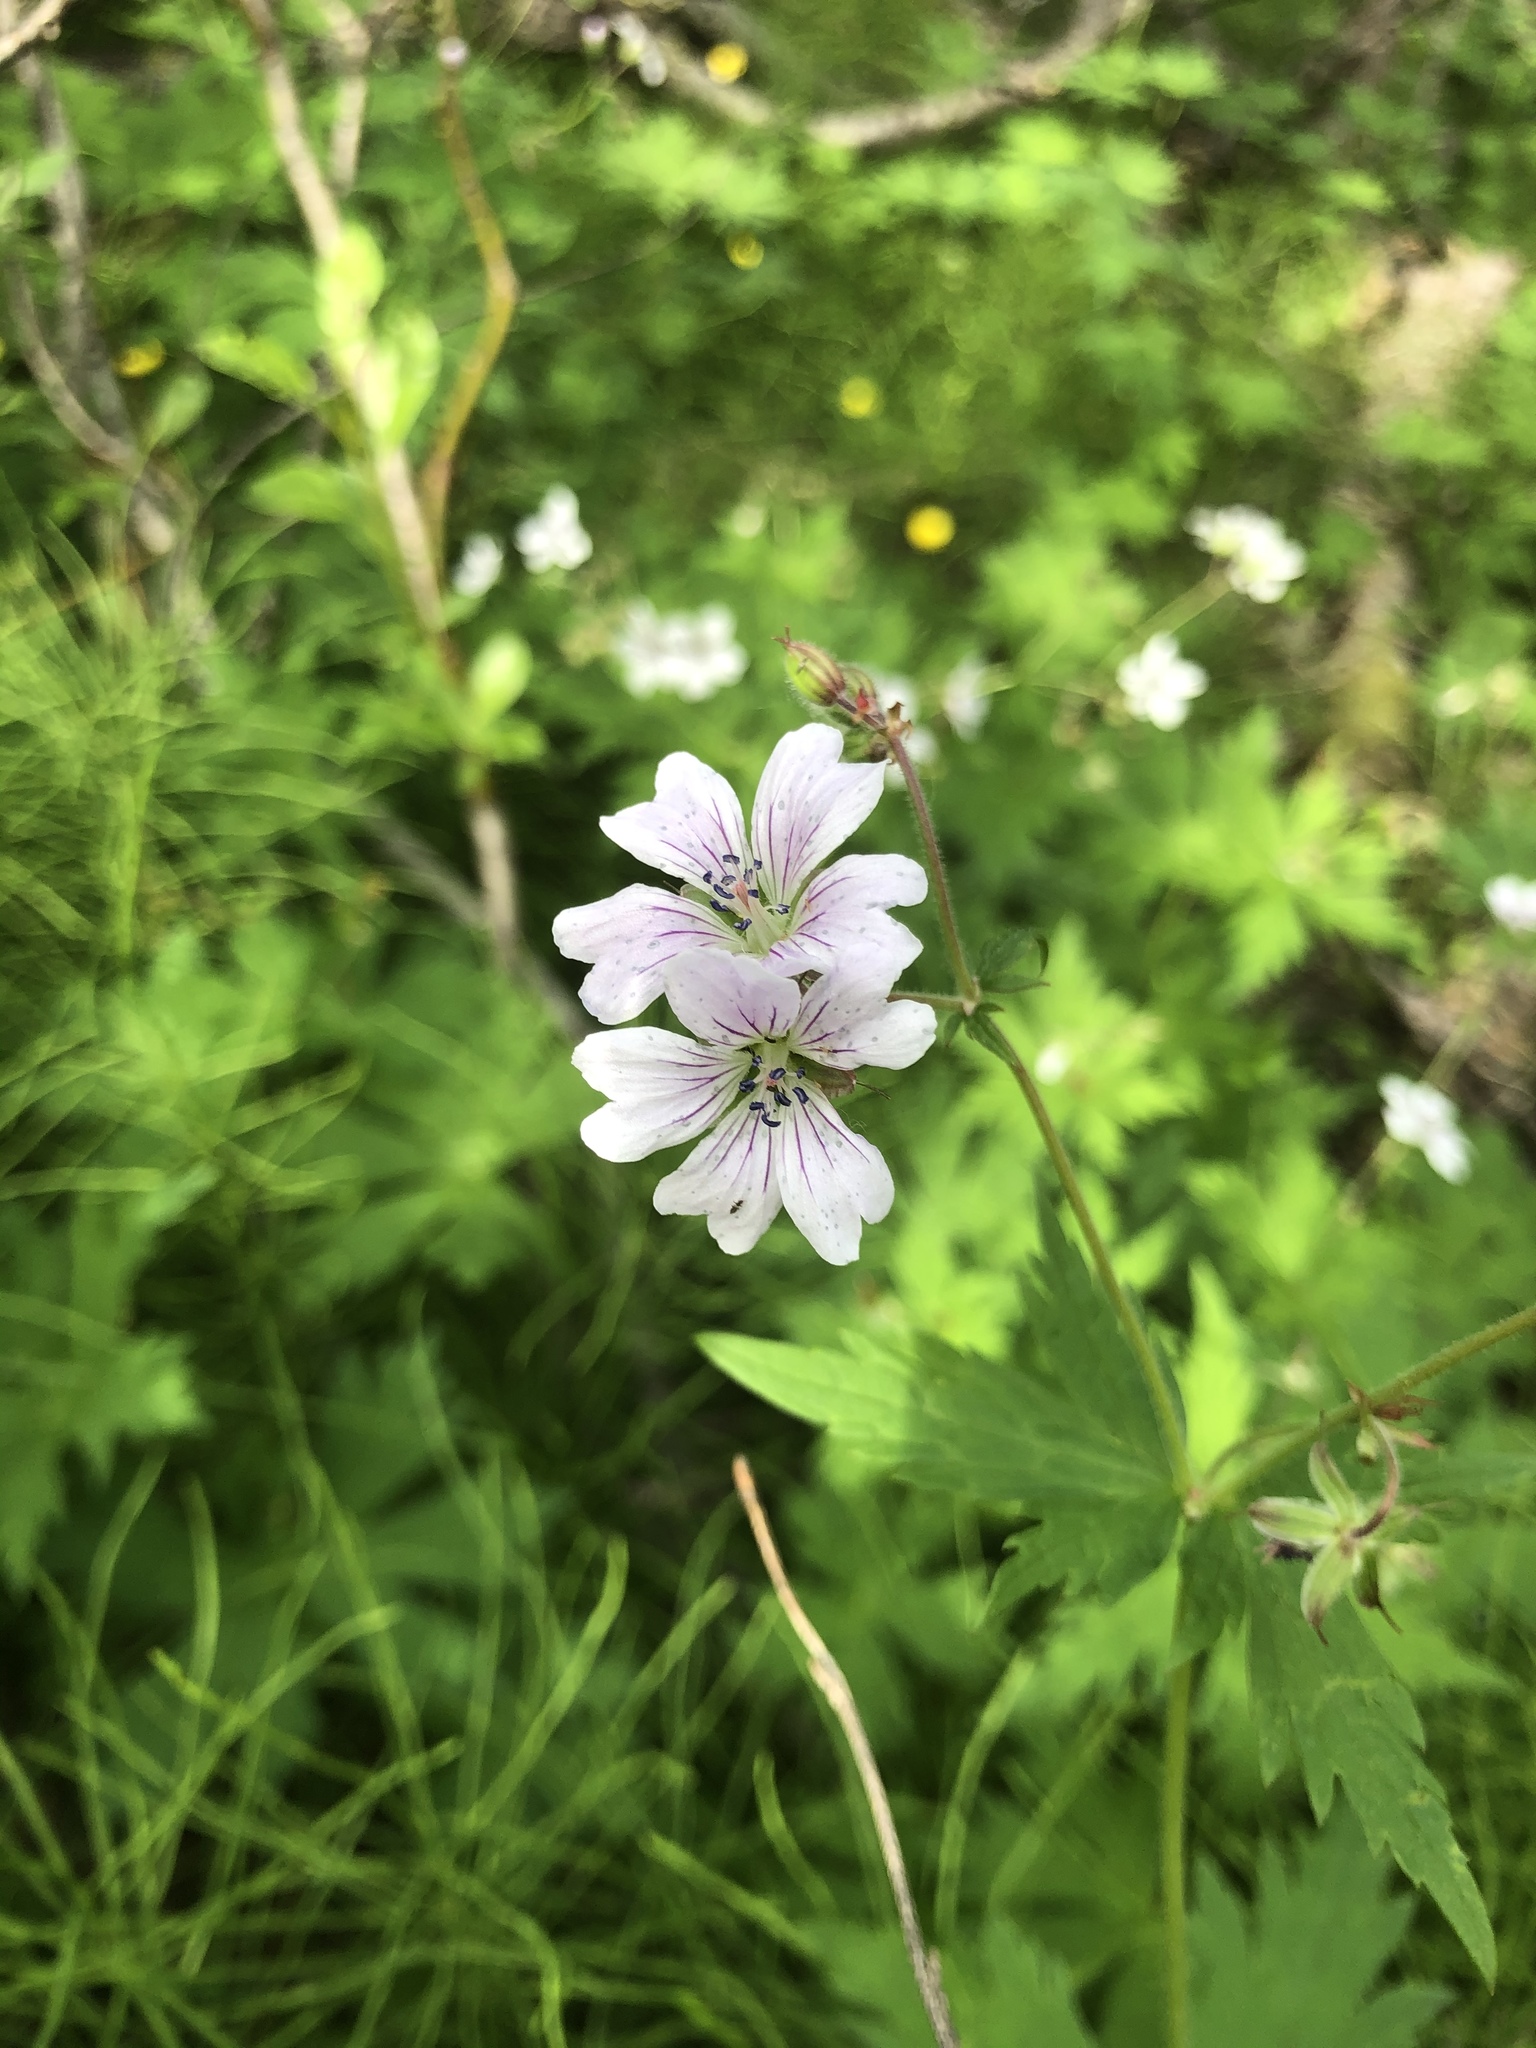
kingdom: Plantae
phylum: Tracheophyta
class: Magnoliopsida
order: Geraniales
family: Geraniaceae
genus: Geranium
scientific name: Geranium sylvaticum
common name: Wood crane's-bill
